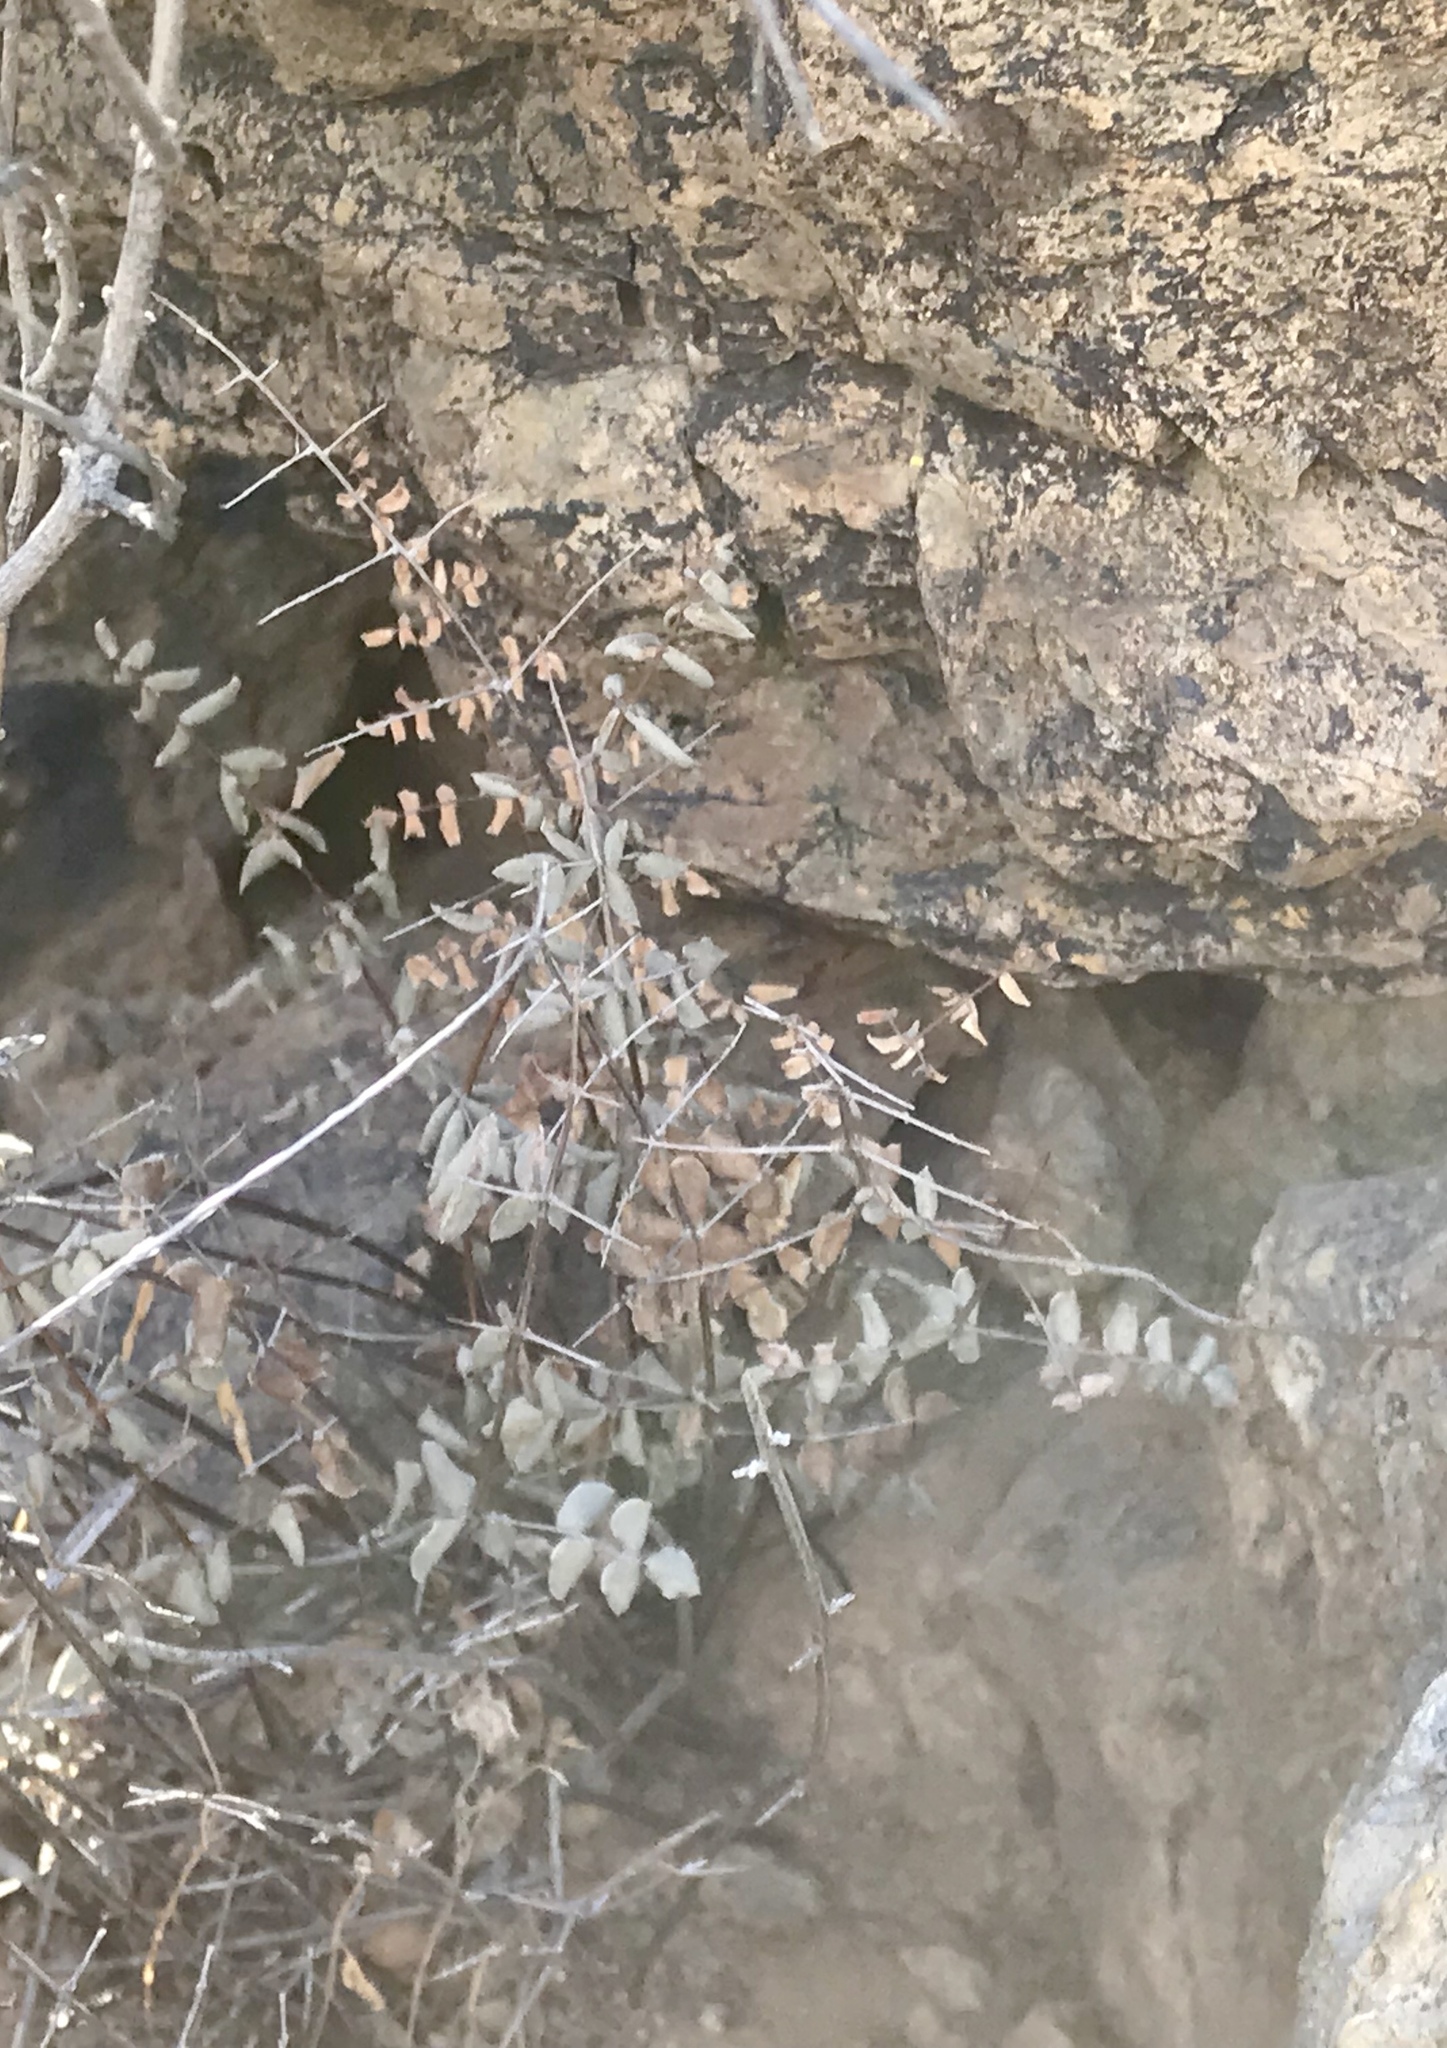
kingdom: Plantae
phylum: Tracheophyta
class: Polypodiopsida
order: Polypodiales
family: Pteridaceae
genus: Pellaea
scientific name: Pellaea truncata
